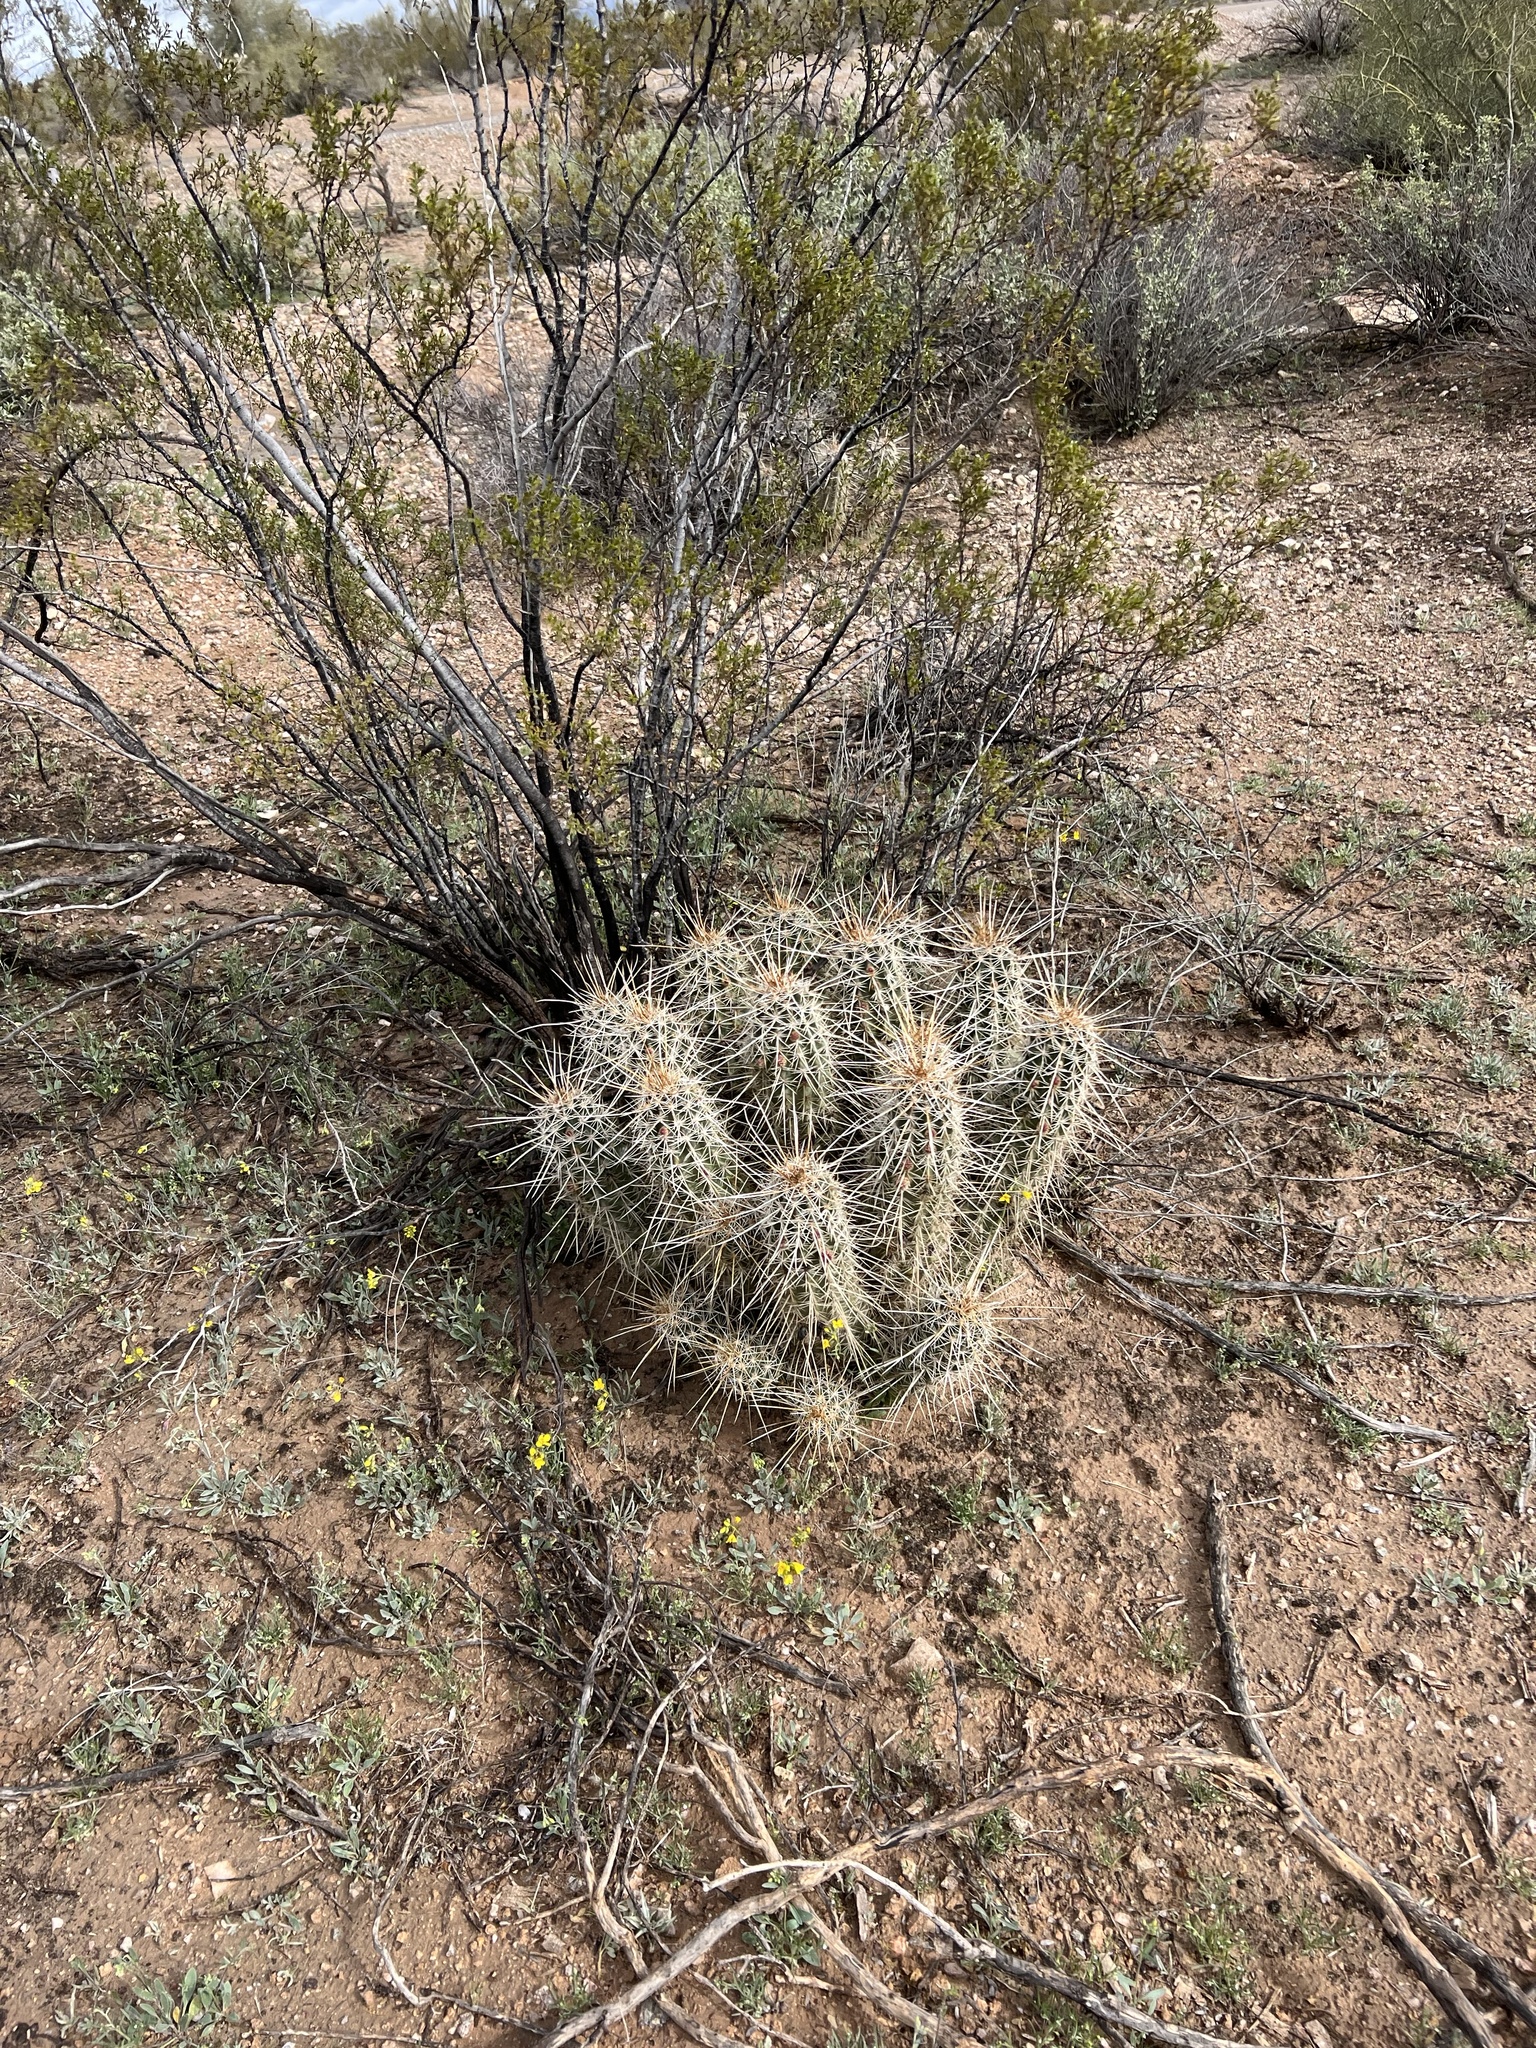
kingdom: Plantae
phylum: Tracheophyta
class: Magnoliopsida
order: Caryophyllales
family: Cactaceae
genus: Echinocereus
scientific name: Echinocereus fasciculatus
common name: Bundle hedgehog
